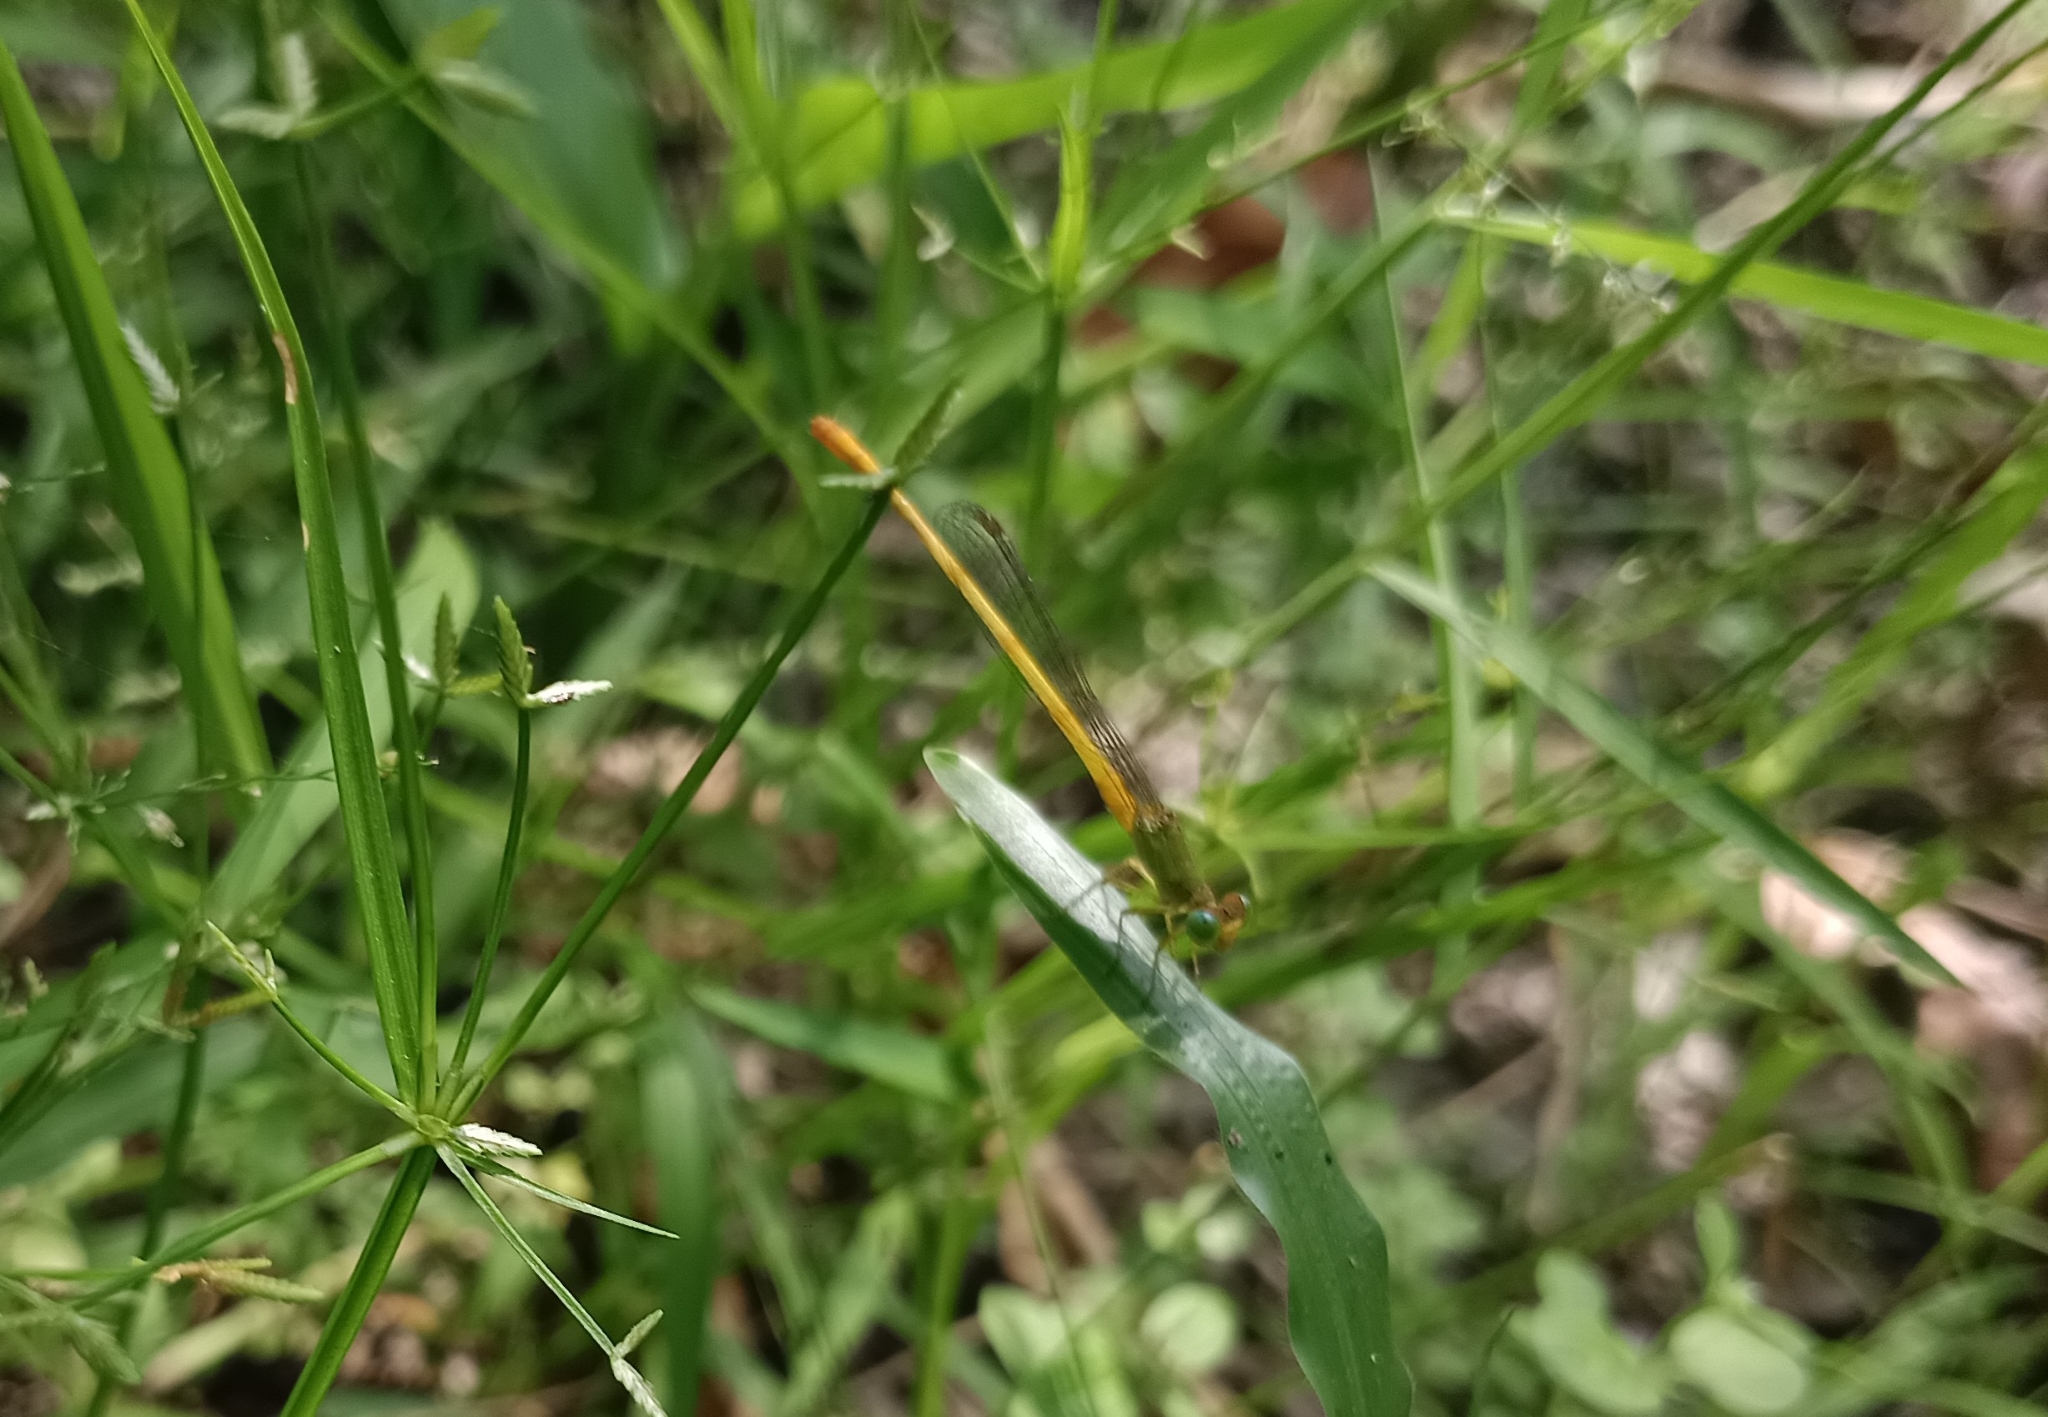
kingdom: Animalia
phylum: Arthropoda
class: Insecta
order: Odonata
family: Coenagrionidae
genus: Ceriagrion
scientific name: Ceriagrion coromandelianum
